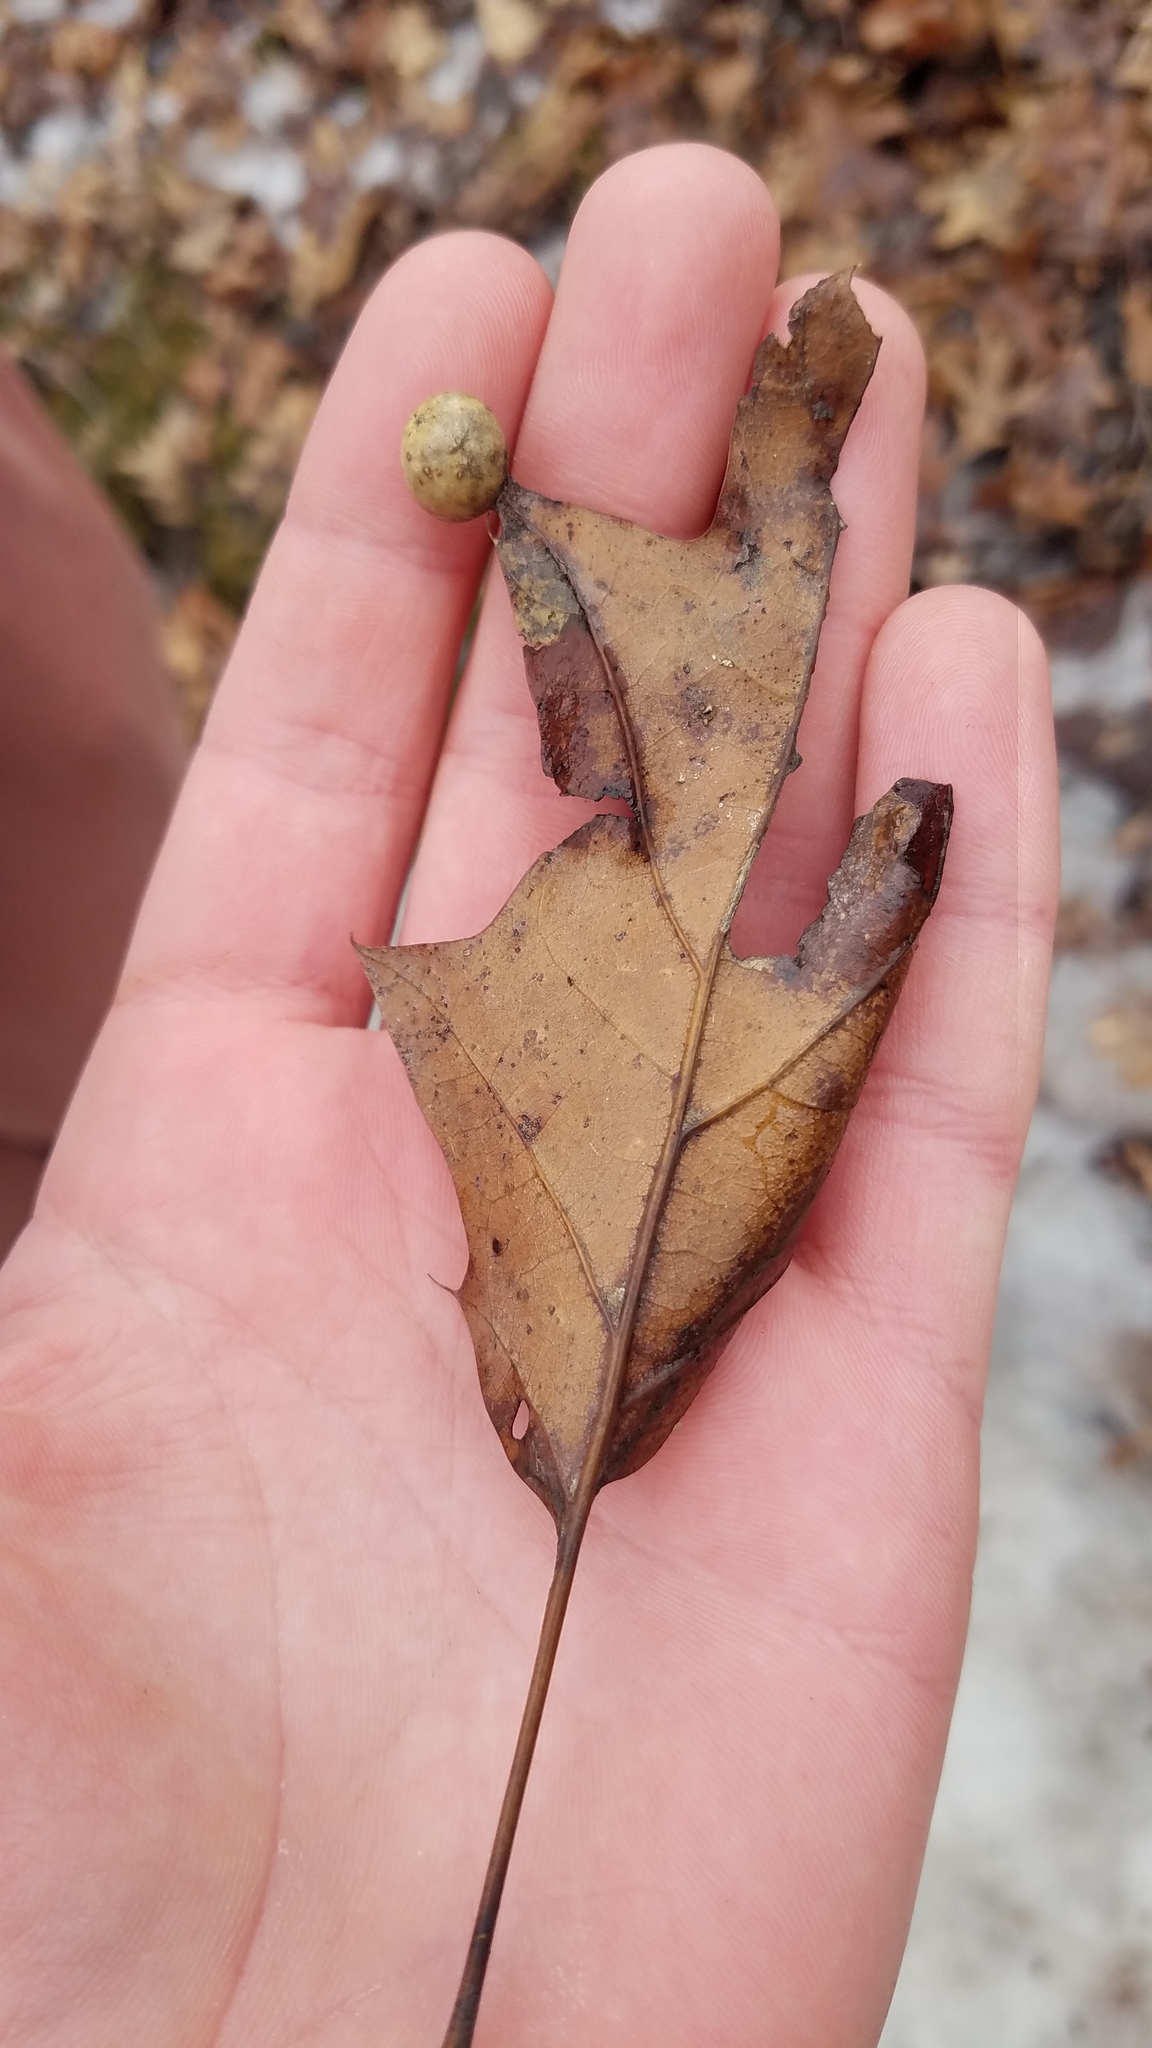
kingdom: Animalia
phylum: Arthropoda
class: Insecta
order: Hymenoptera
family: Cynipidae
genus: Amphibolips
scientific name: Amphibolips
